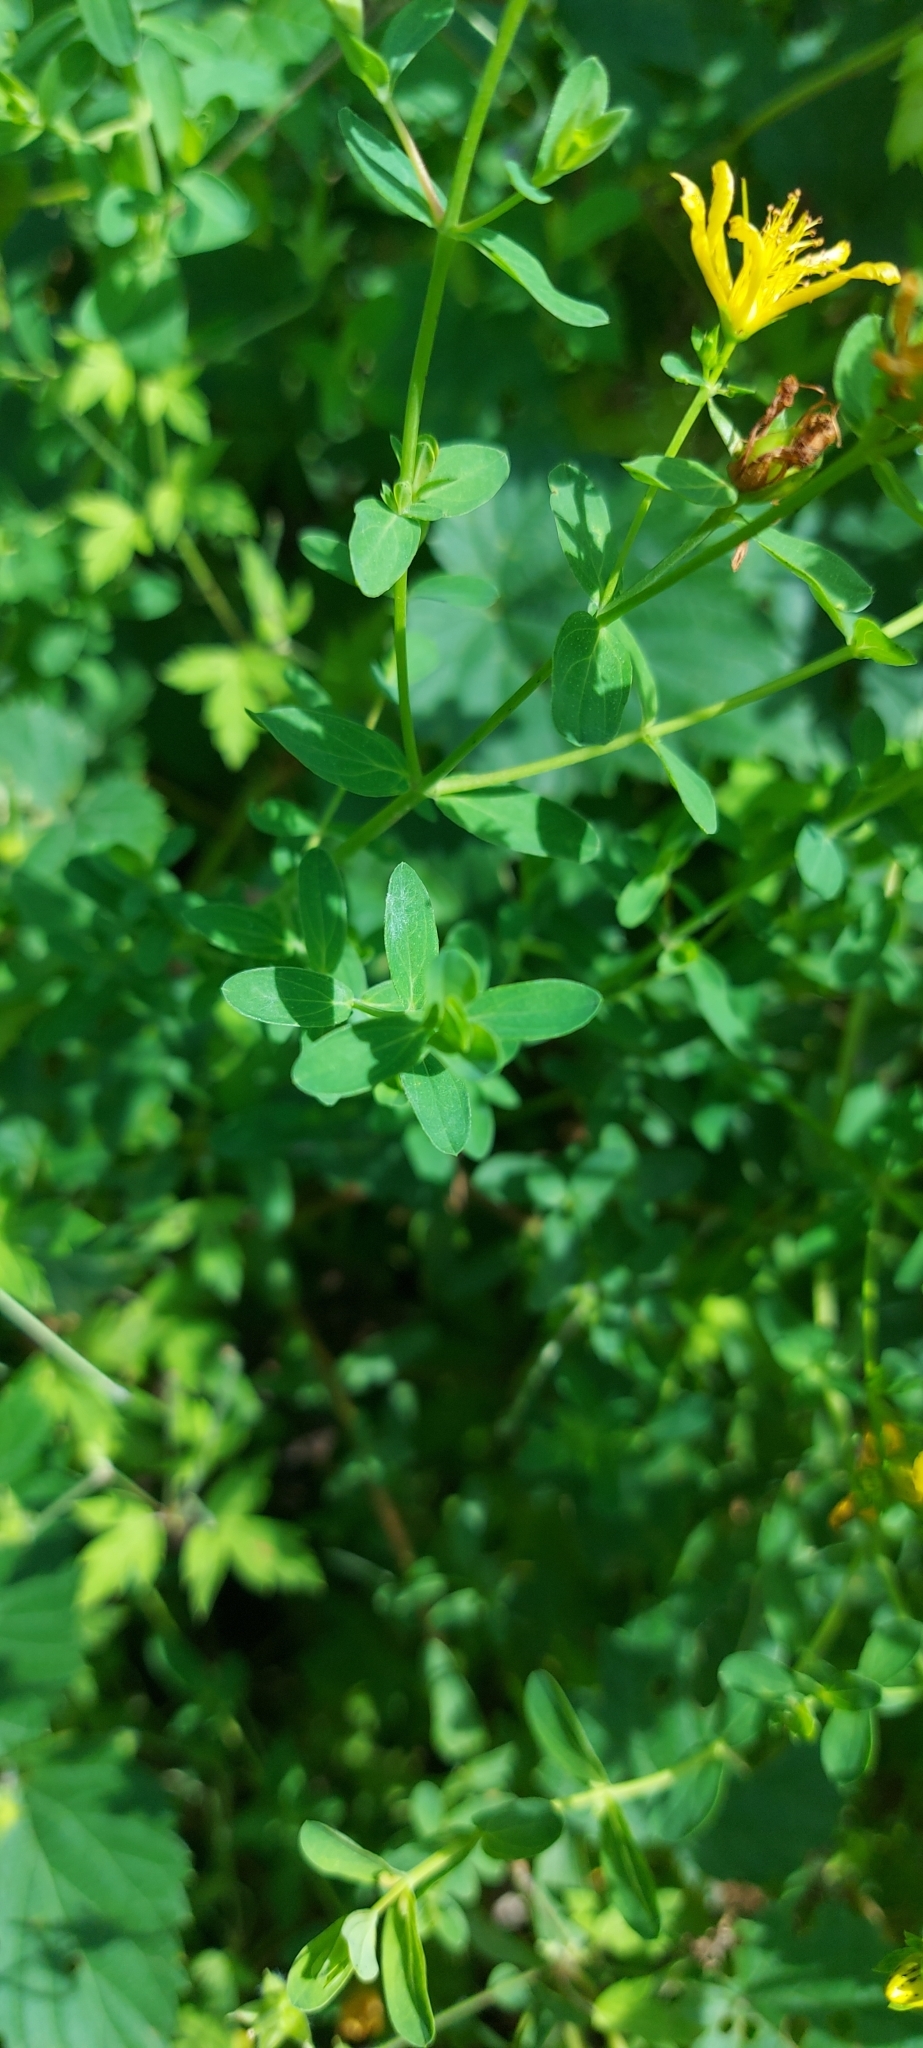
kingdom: Plantae
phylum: Tracheophyta
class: Magnoliopsida
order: Malpighiales
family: Hypericaceae
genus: Hypericum
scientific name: Hypericum perforatum
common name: Common st. johnswort
